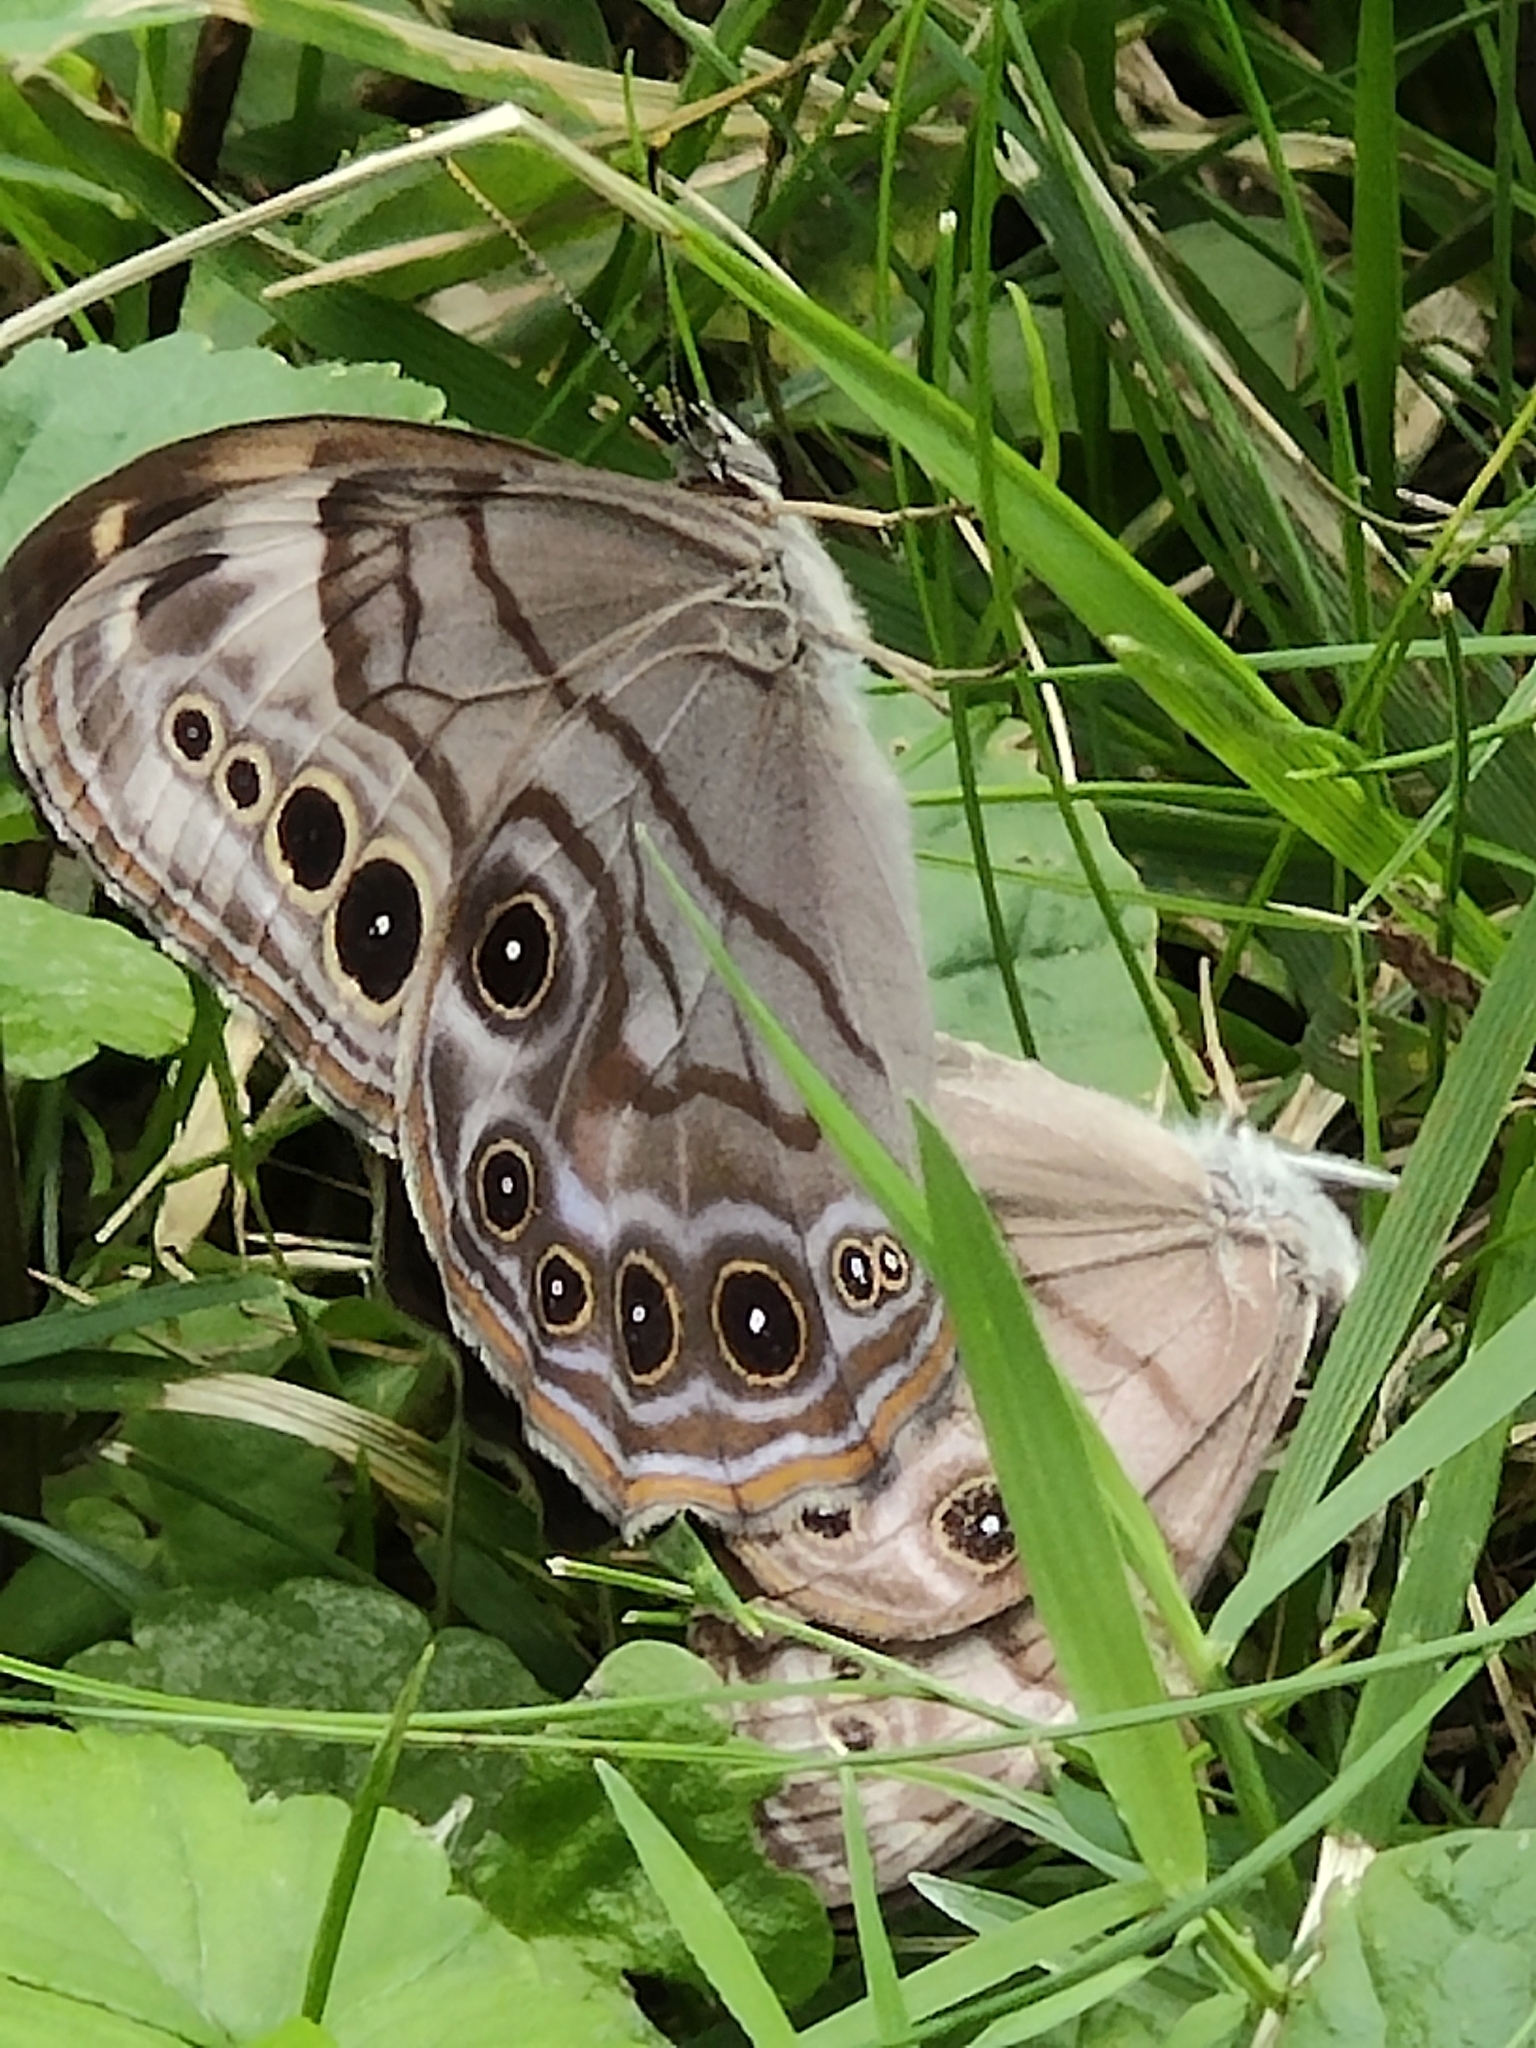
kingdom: Animalia
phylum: Arthropoda
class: Insecta
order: Lepidoptera
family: Nymphalidae
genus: Lethe
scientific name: Lethe anthedon
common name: Northern pearly-eye
